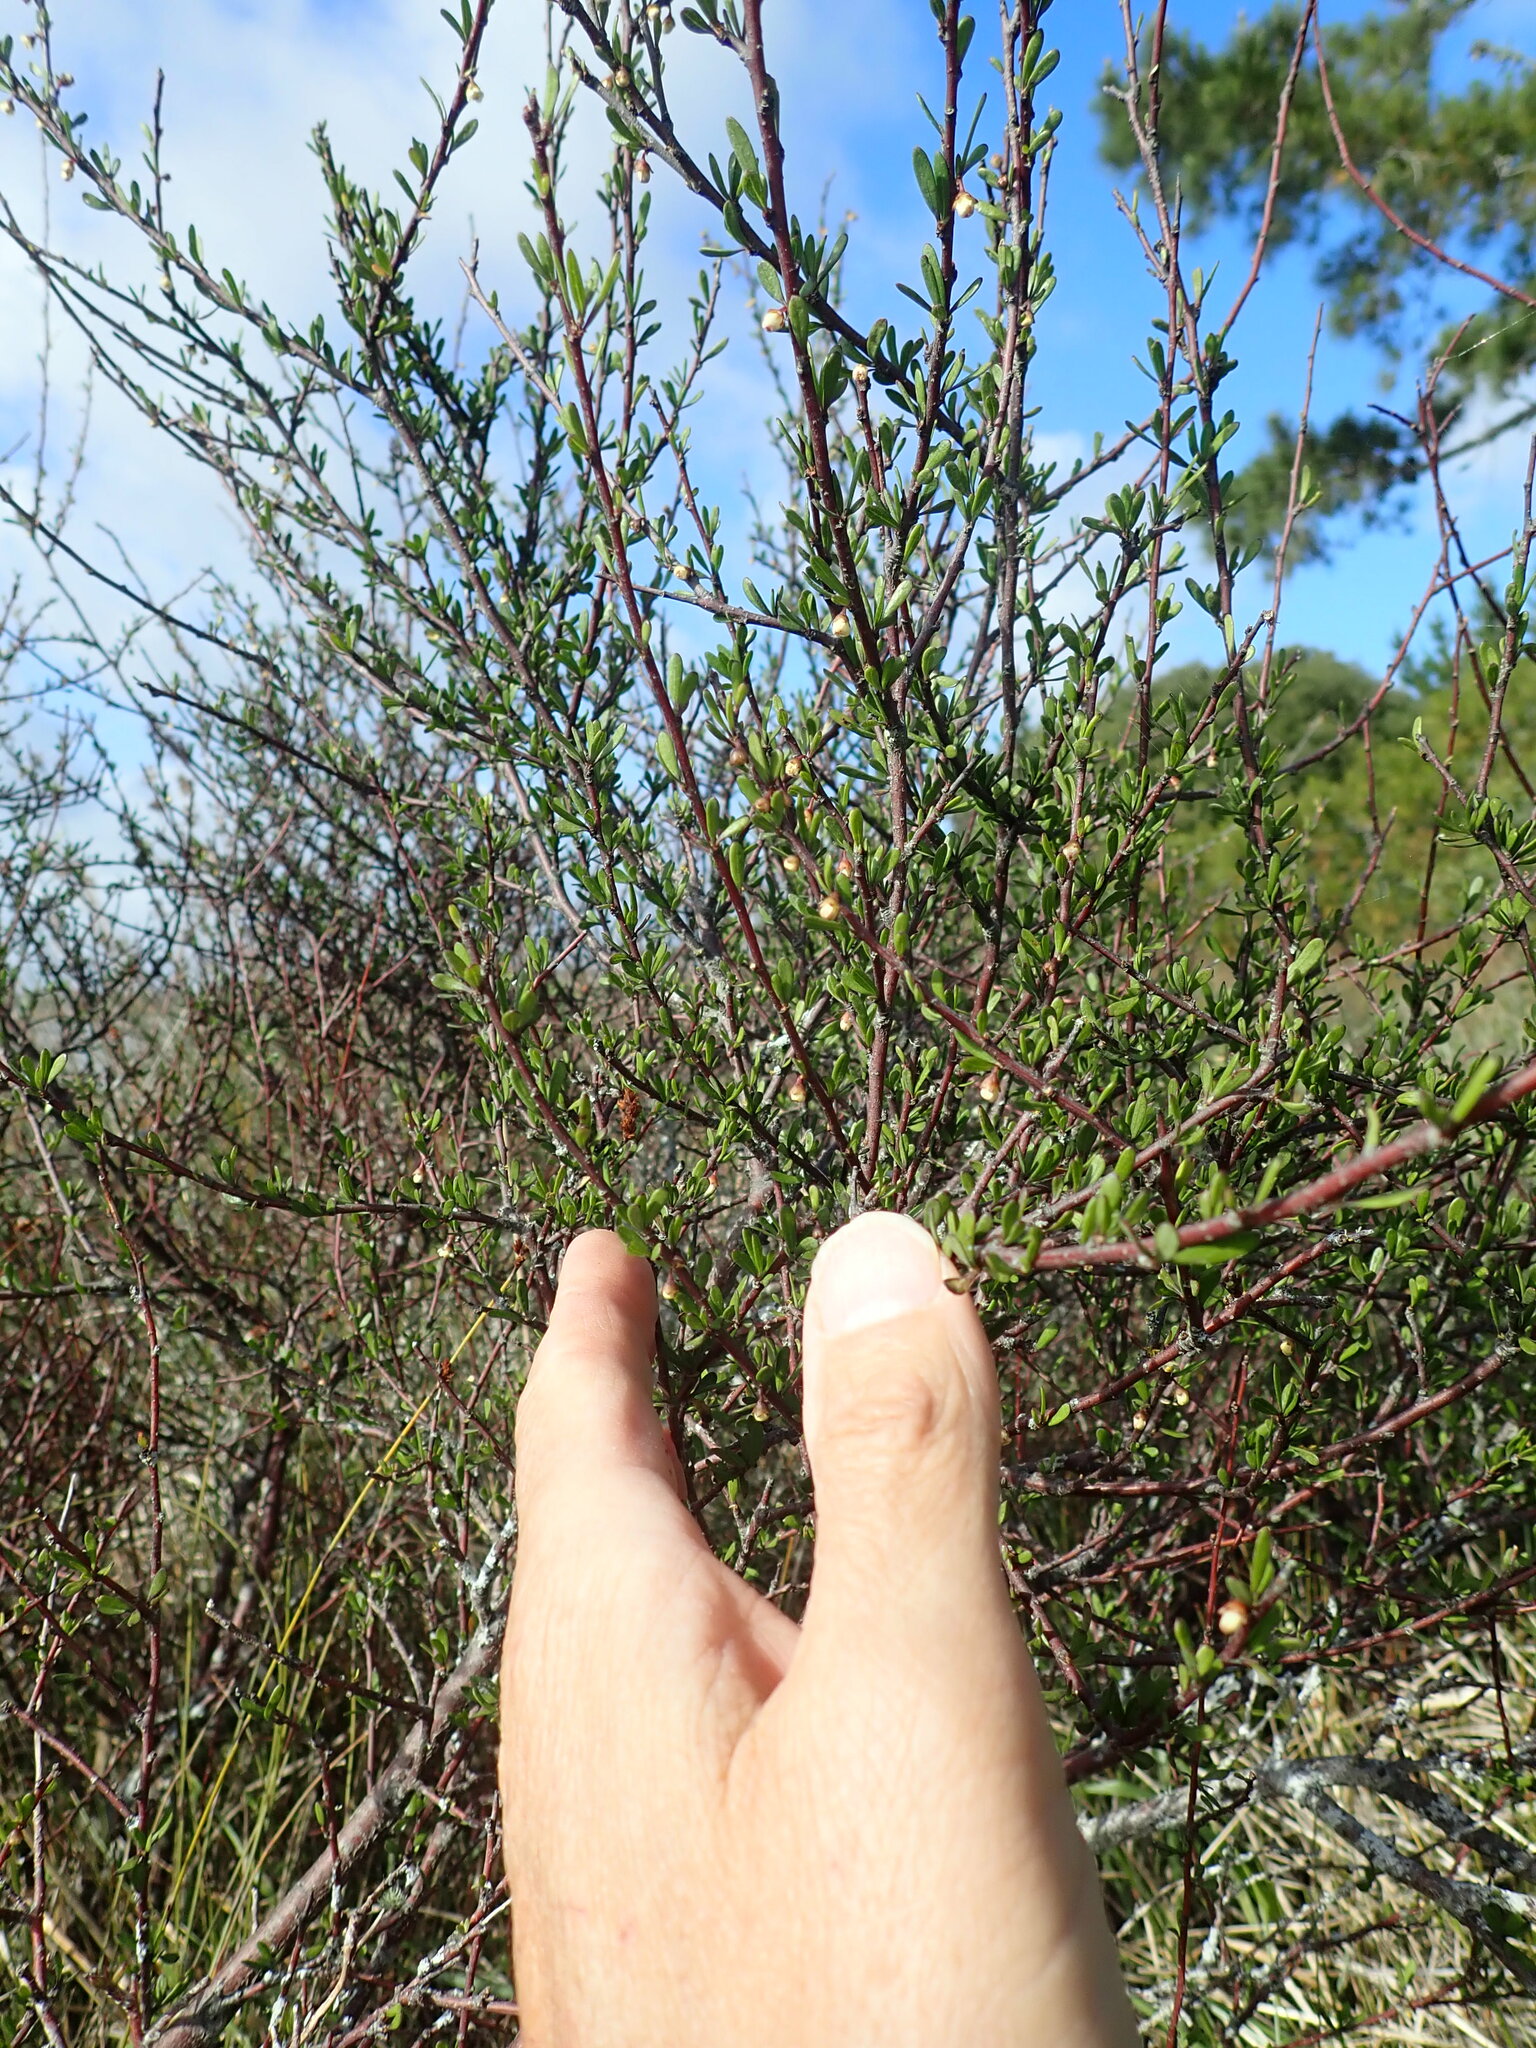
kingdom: Plantae
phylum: Tracheophyta
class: Magnoliopsida
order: Malvales
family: Malvaceae
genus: Plagianthus
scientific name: Plagianthus divaricatus
